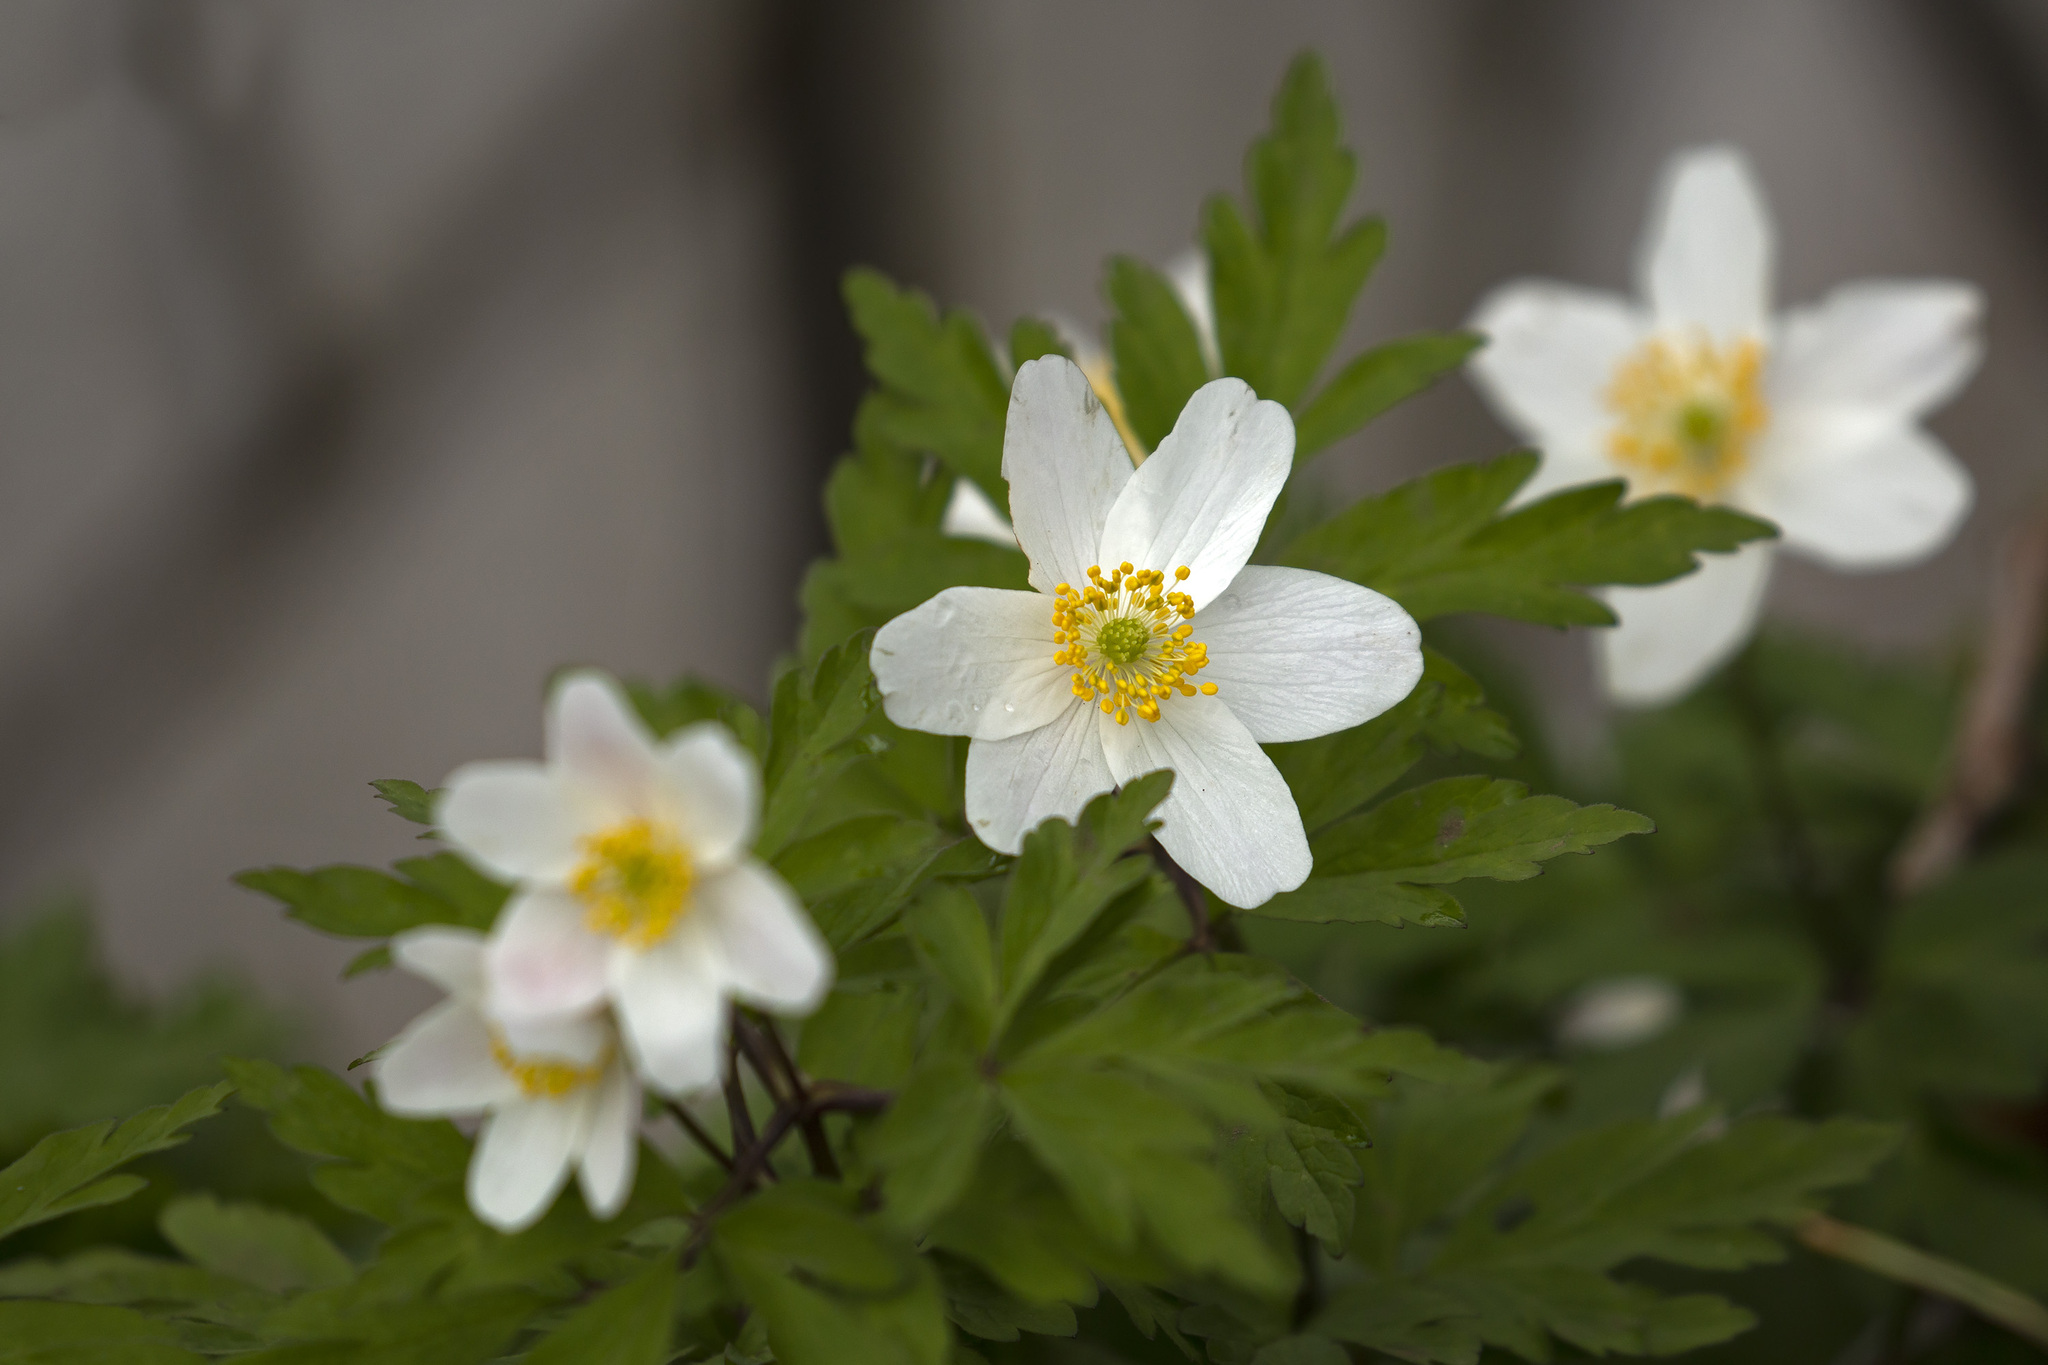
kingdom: Plantae
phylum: Tracheophyta
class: Magnoliopsida
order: Ranunculales
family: Ranunculaceae
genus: Anemone
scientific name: Anemone nemorosa
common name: Wood anemone
